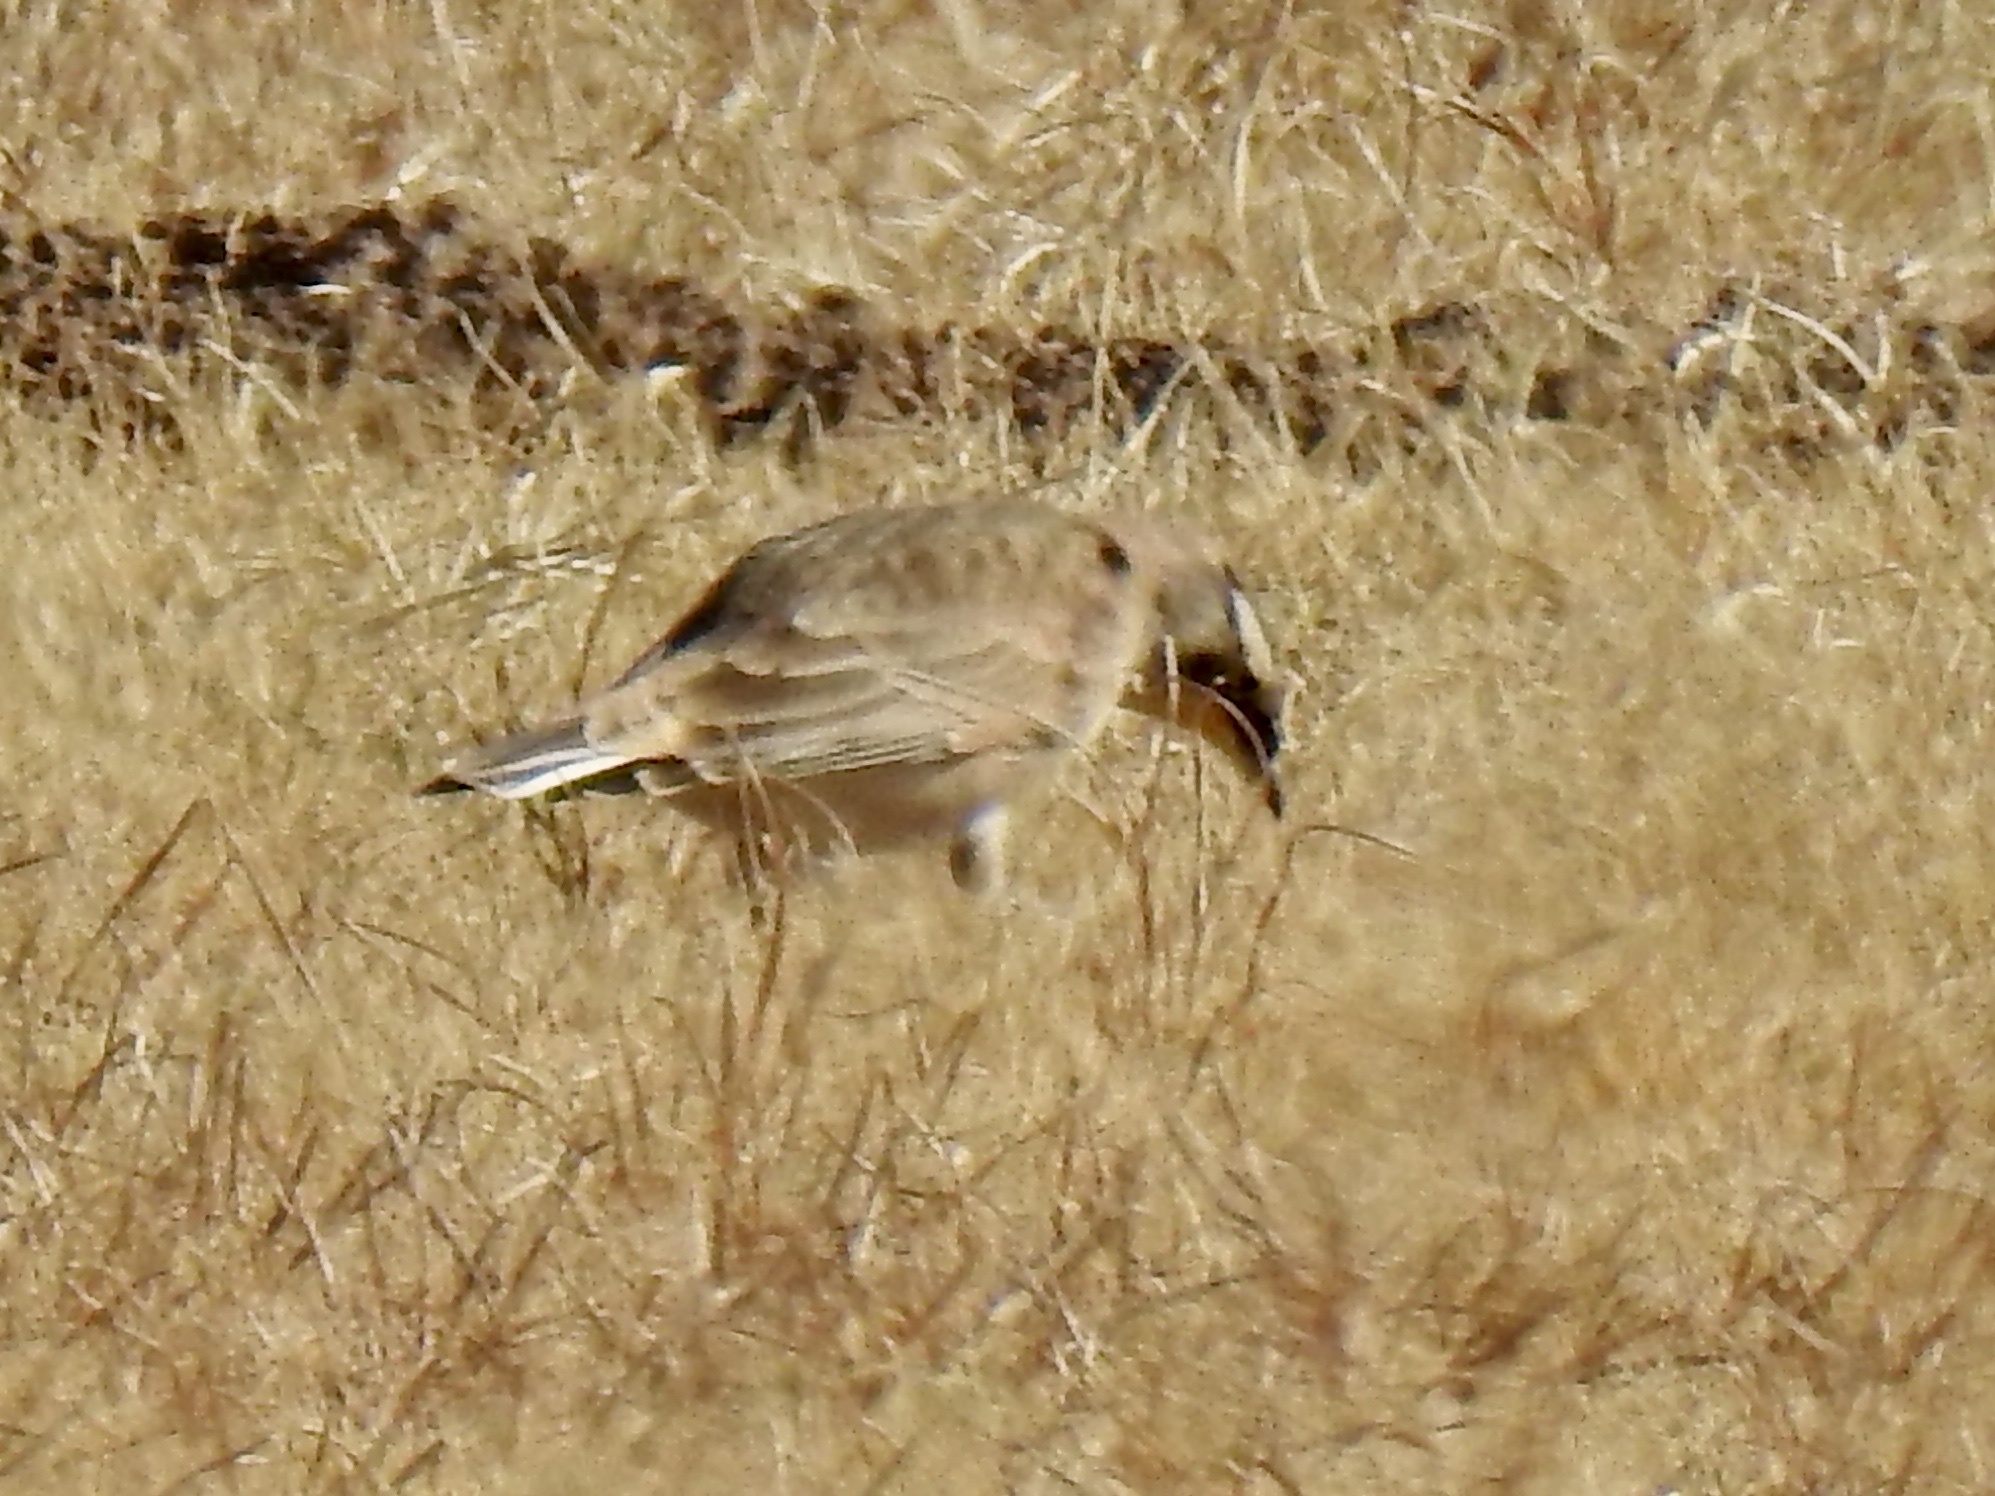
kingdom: Animalia
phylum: Chordata
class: Aves
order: Passeriformes
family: Alaudidae
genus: Eremophila
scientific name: Eremophila alpestris
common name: Horned lark
